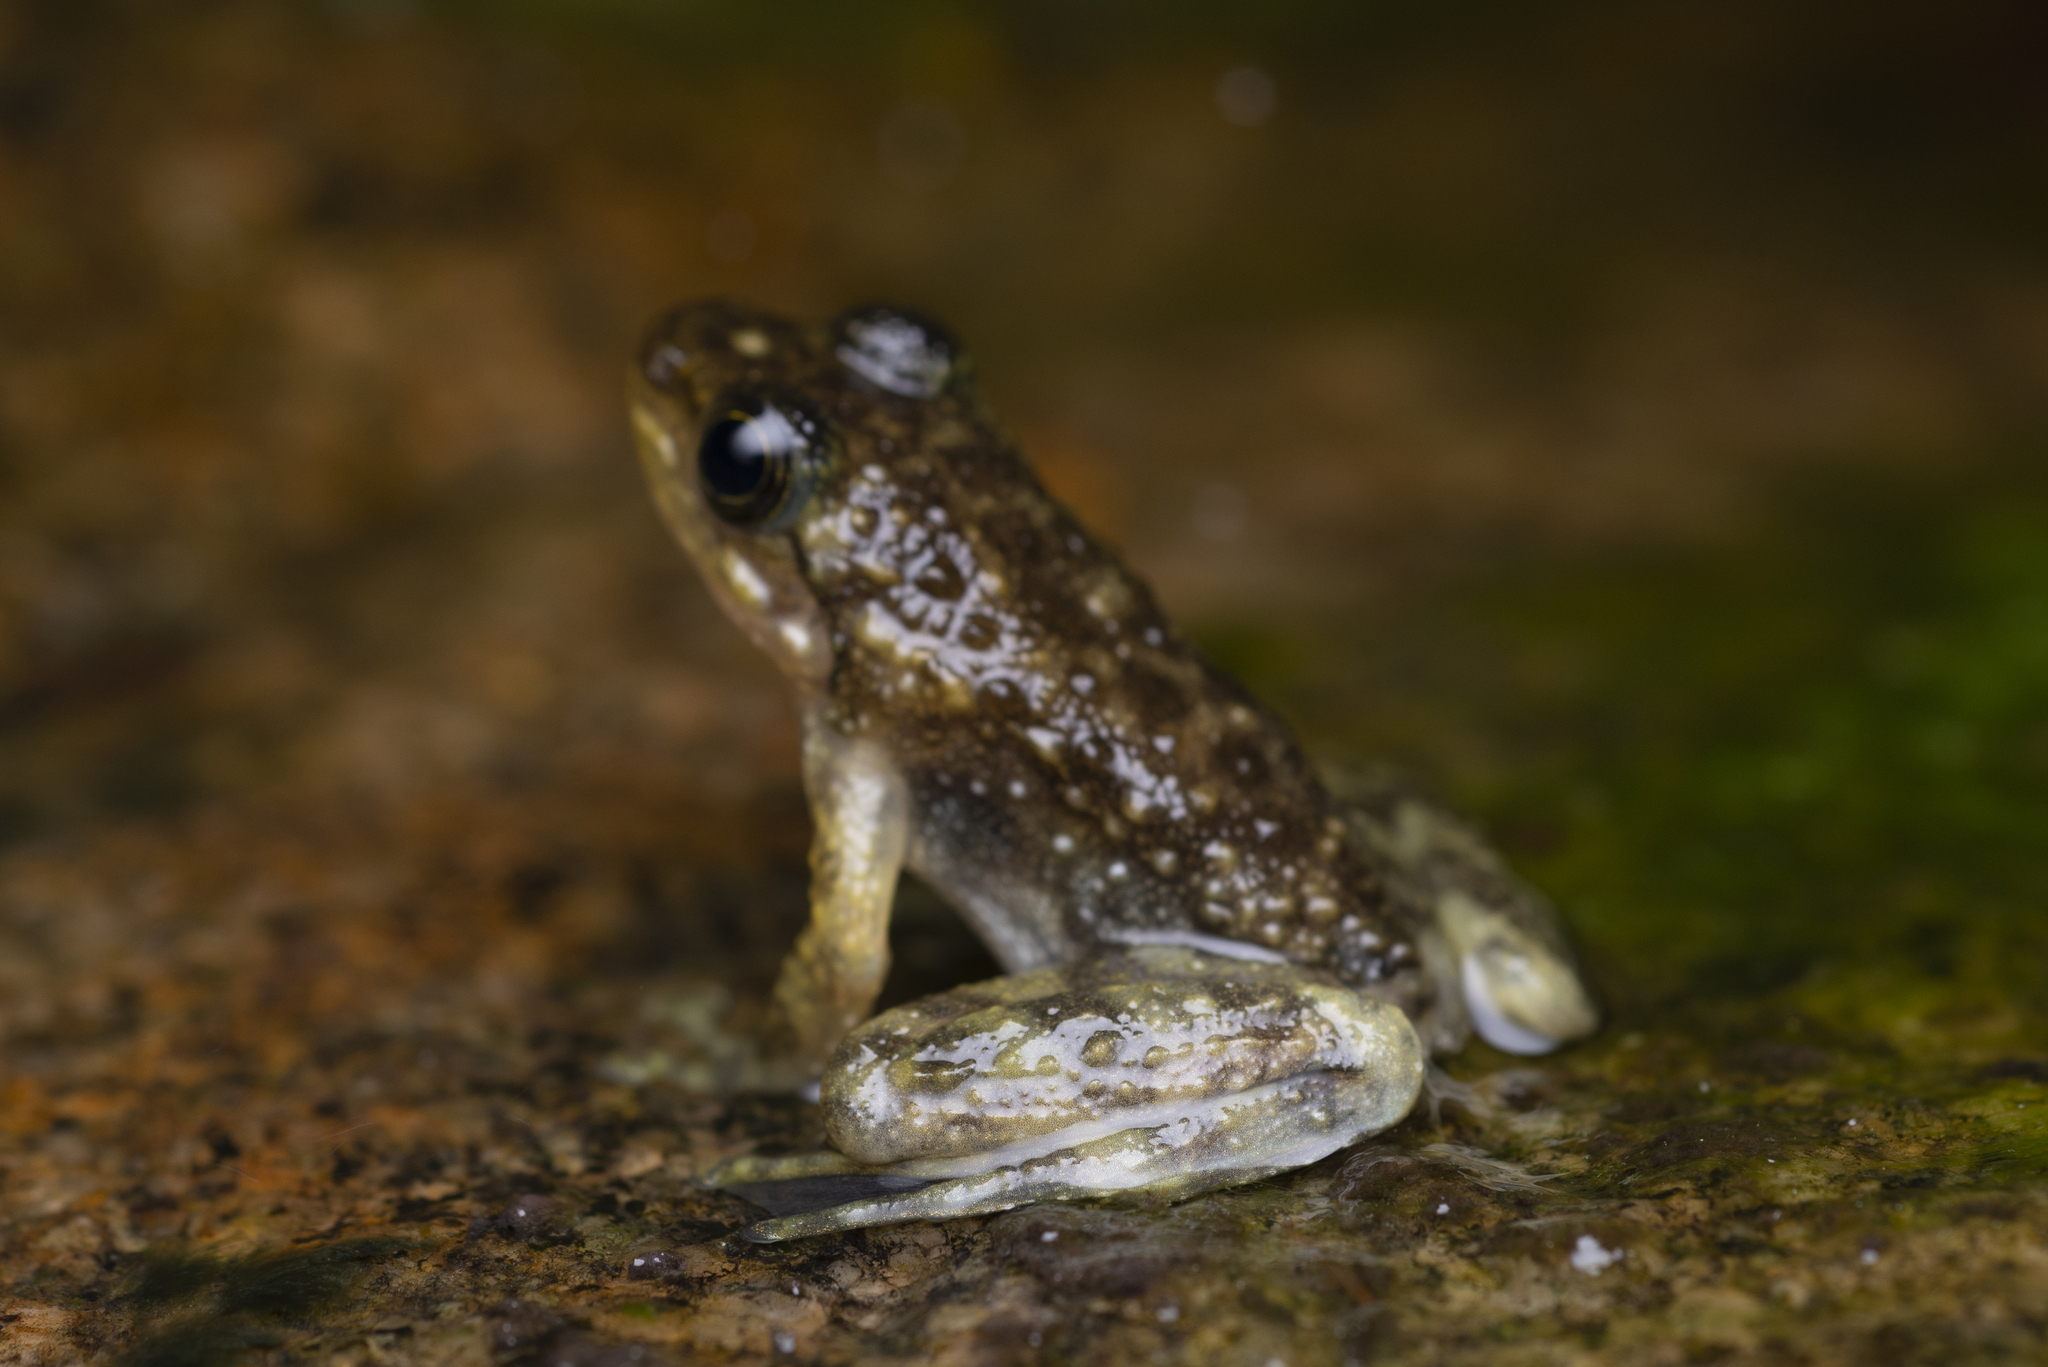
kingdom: Animalia
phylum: Chordata
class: Amphibia
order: Anura
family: Ranidae
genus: Amolops
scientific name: Amolops hongkongensis
